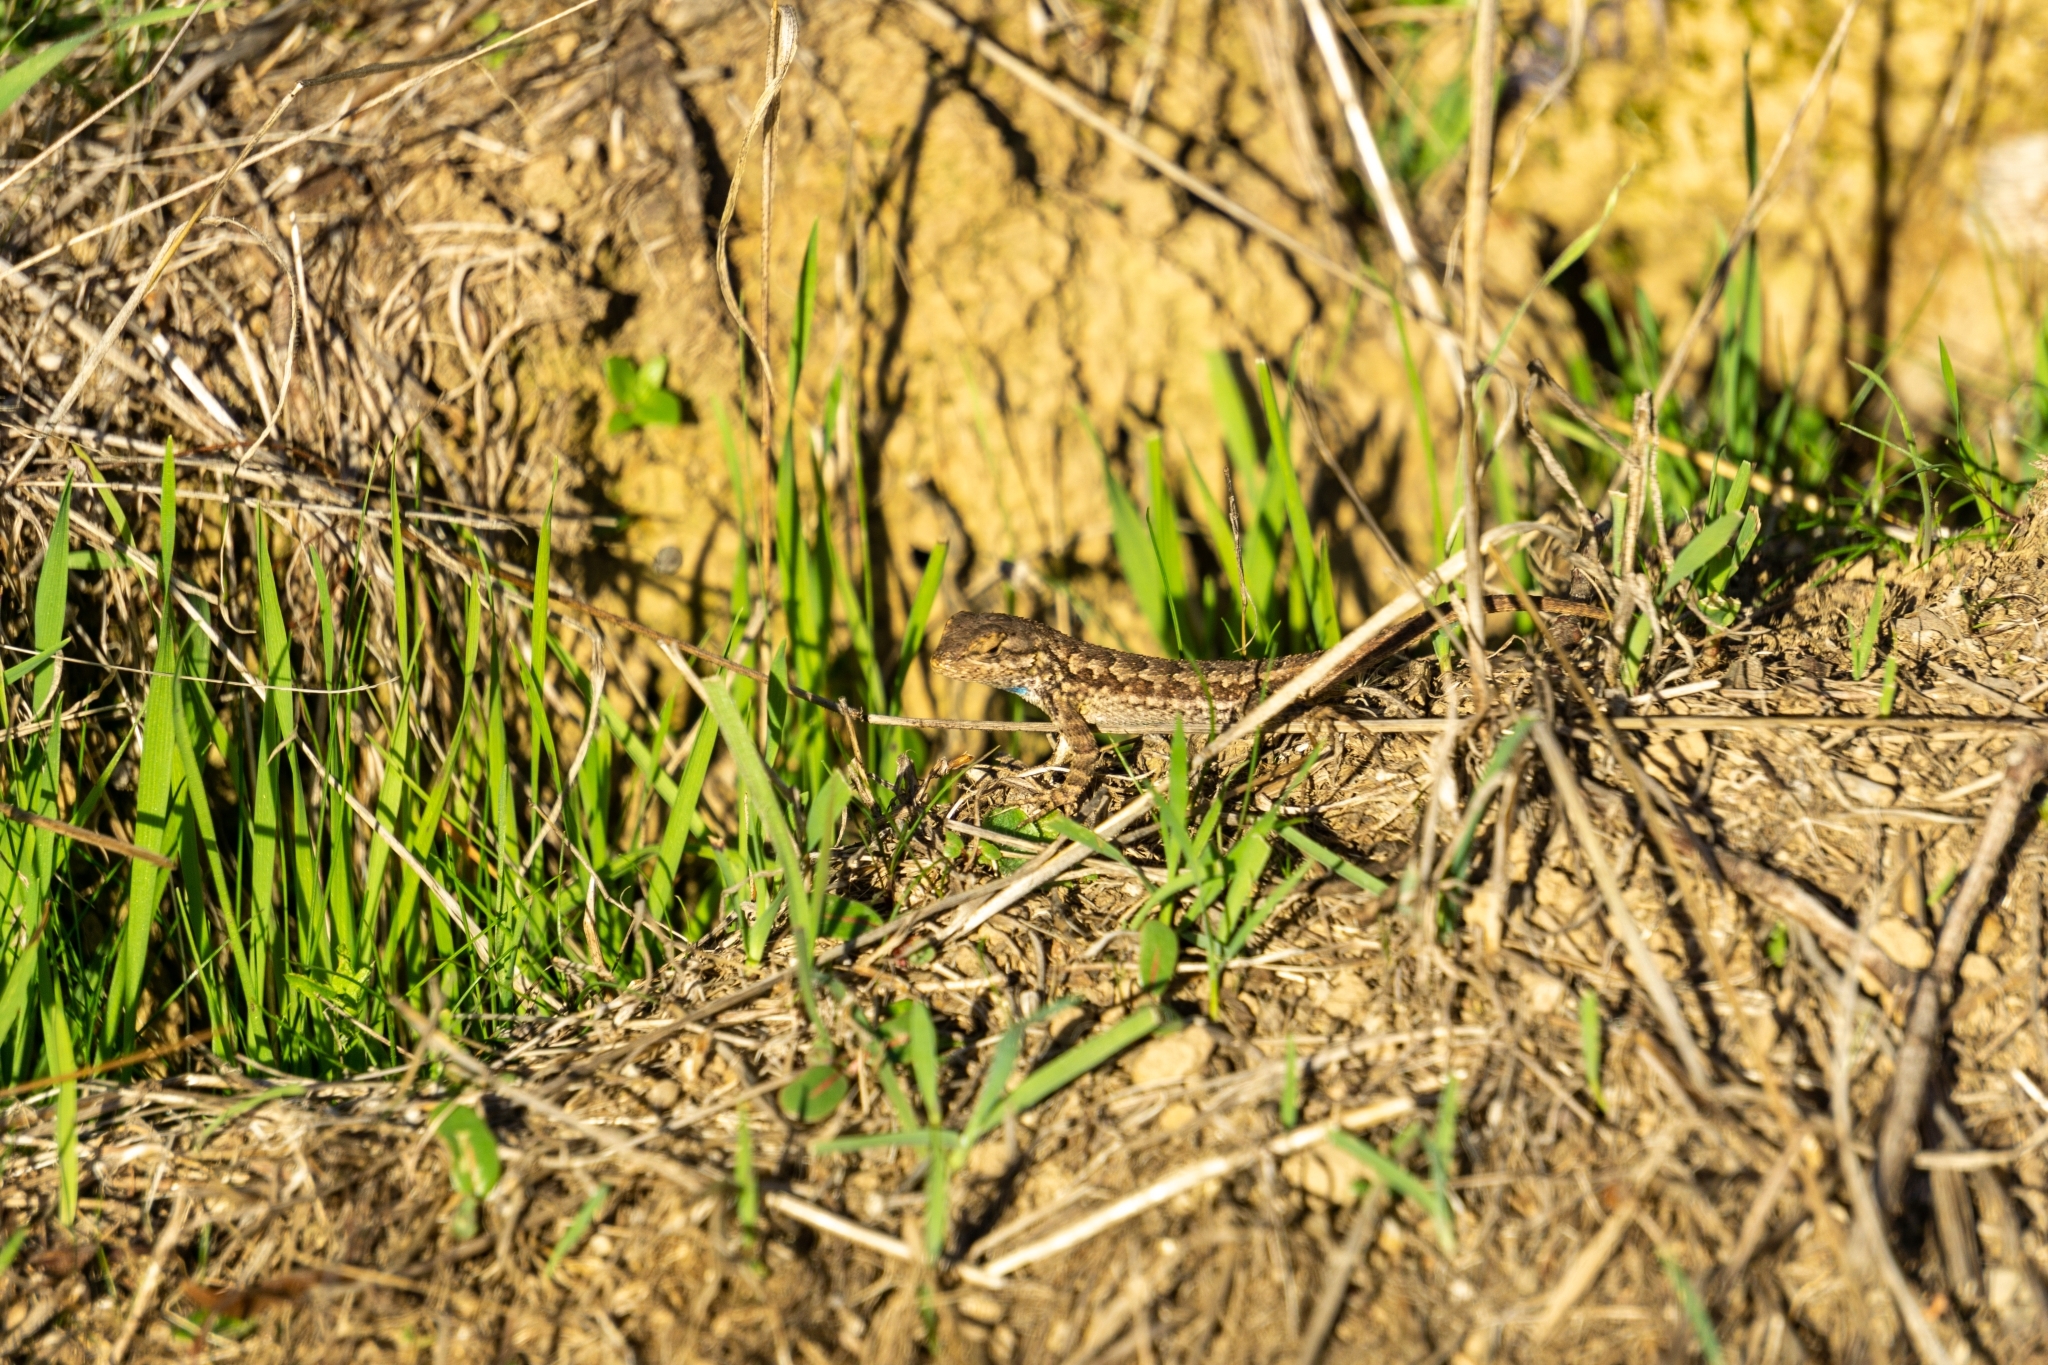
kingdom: Animalia
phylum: Chordata
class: Squamata
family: Phrynosomatidae
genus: Sceloporus
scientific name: Sceloporus occidentalis
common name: Western fence lizard
